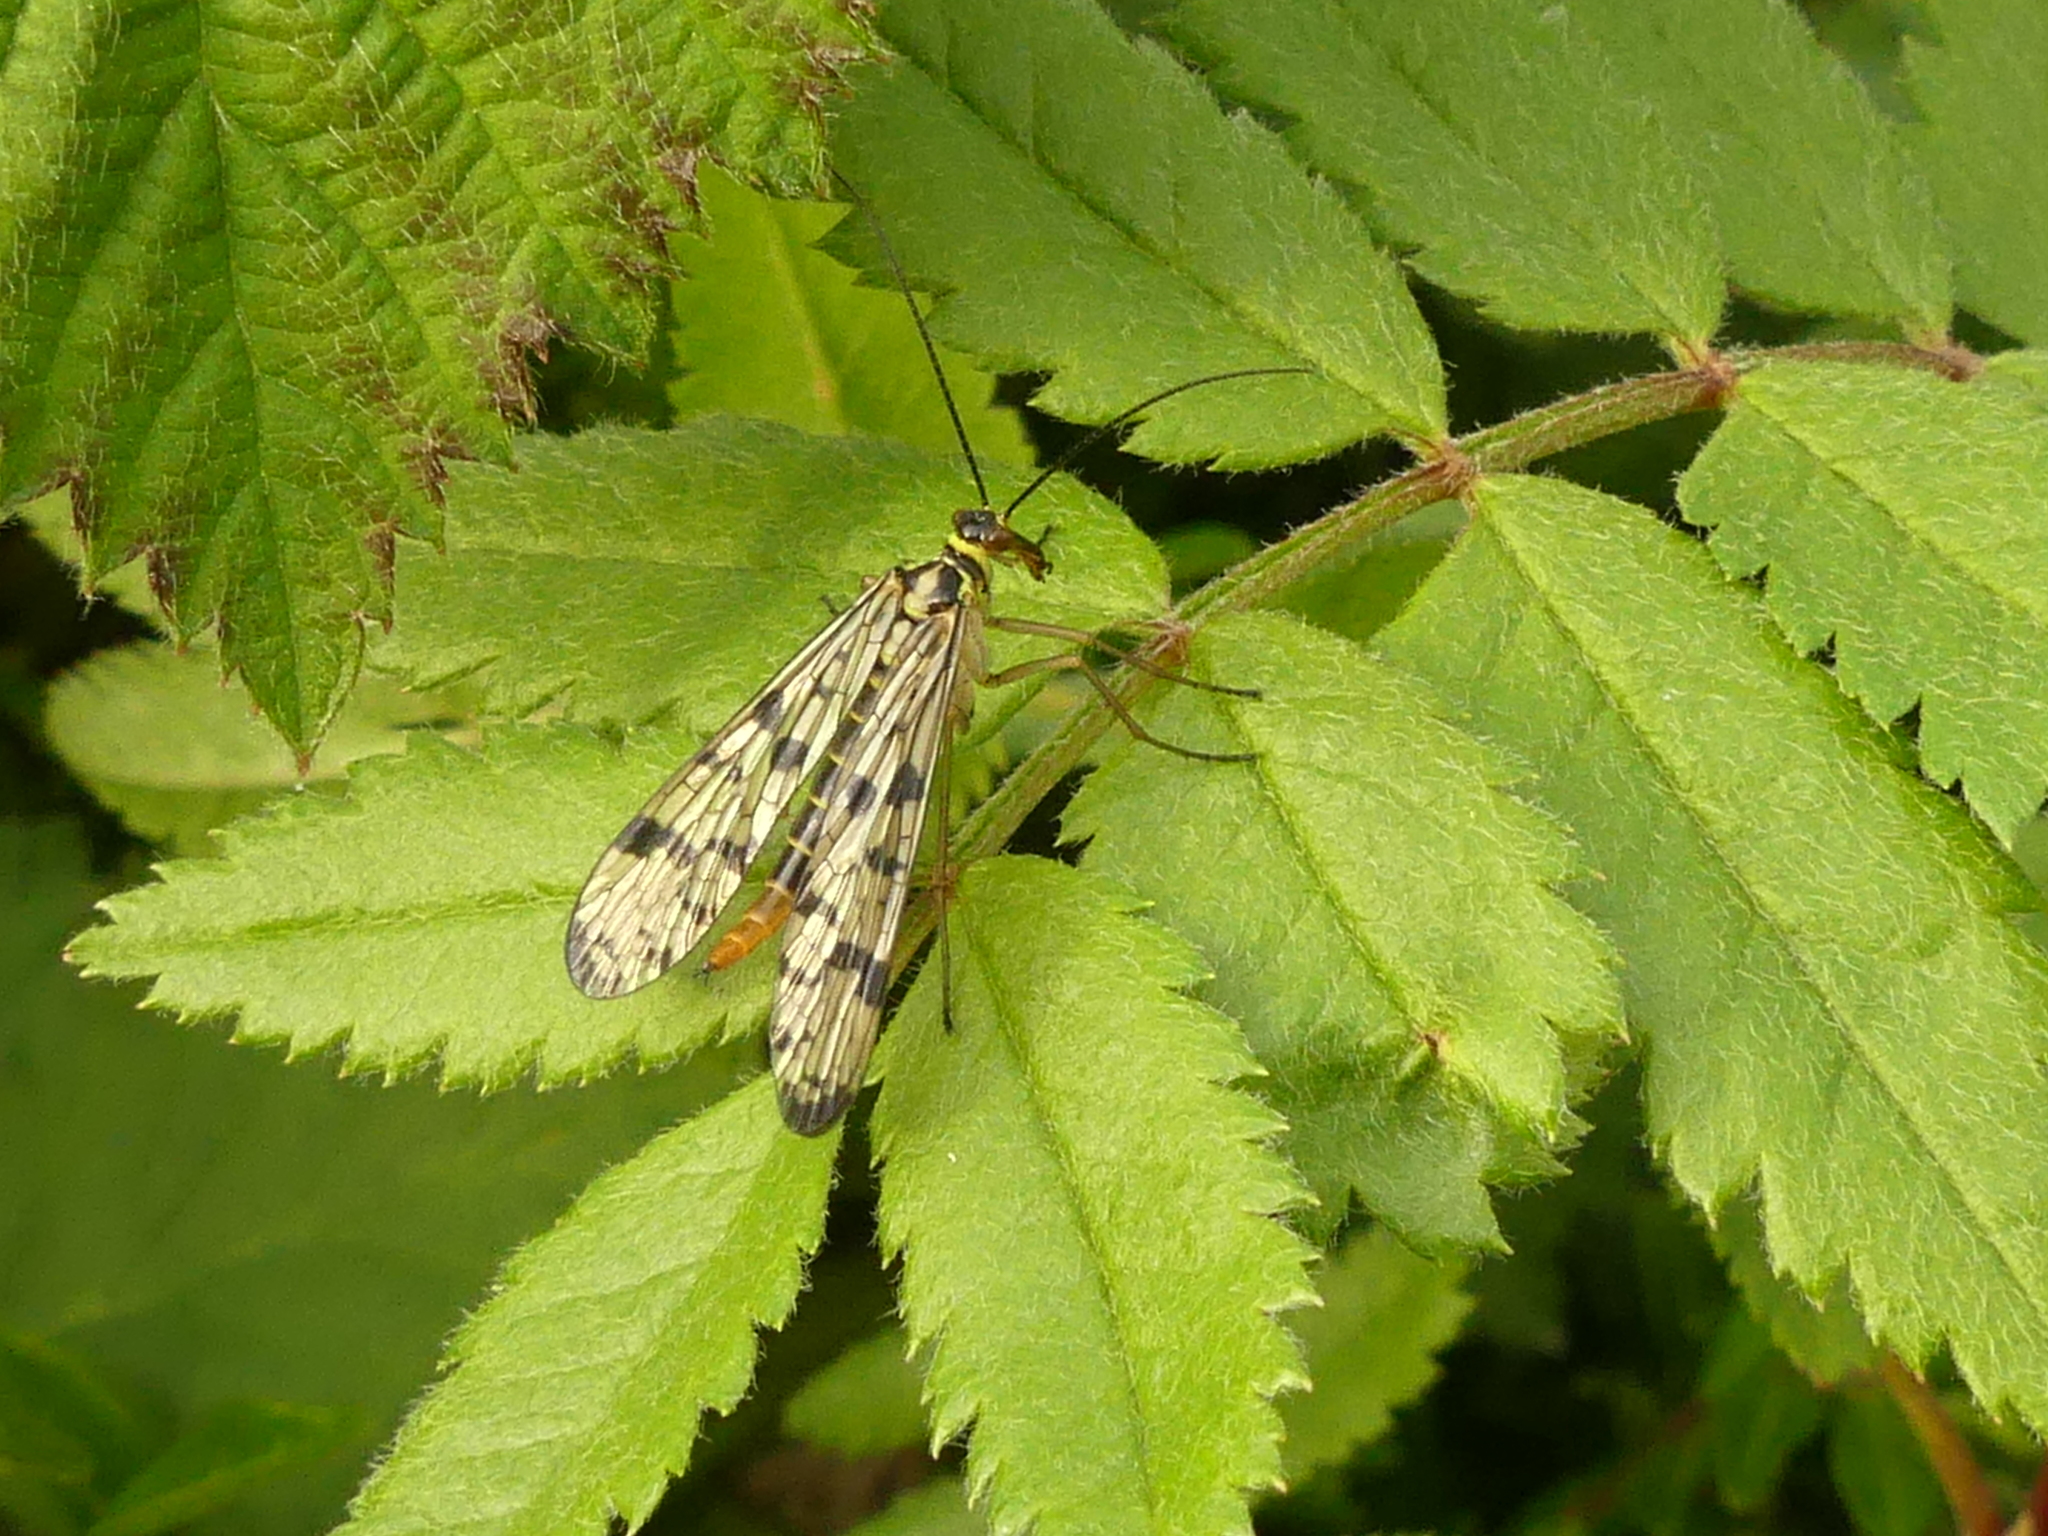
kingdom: Animalia
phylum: Arthropoda
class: Insecta
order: Mecoptera
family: Panorpidae
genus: Panorpa
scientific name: Panorpa germanica
